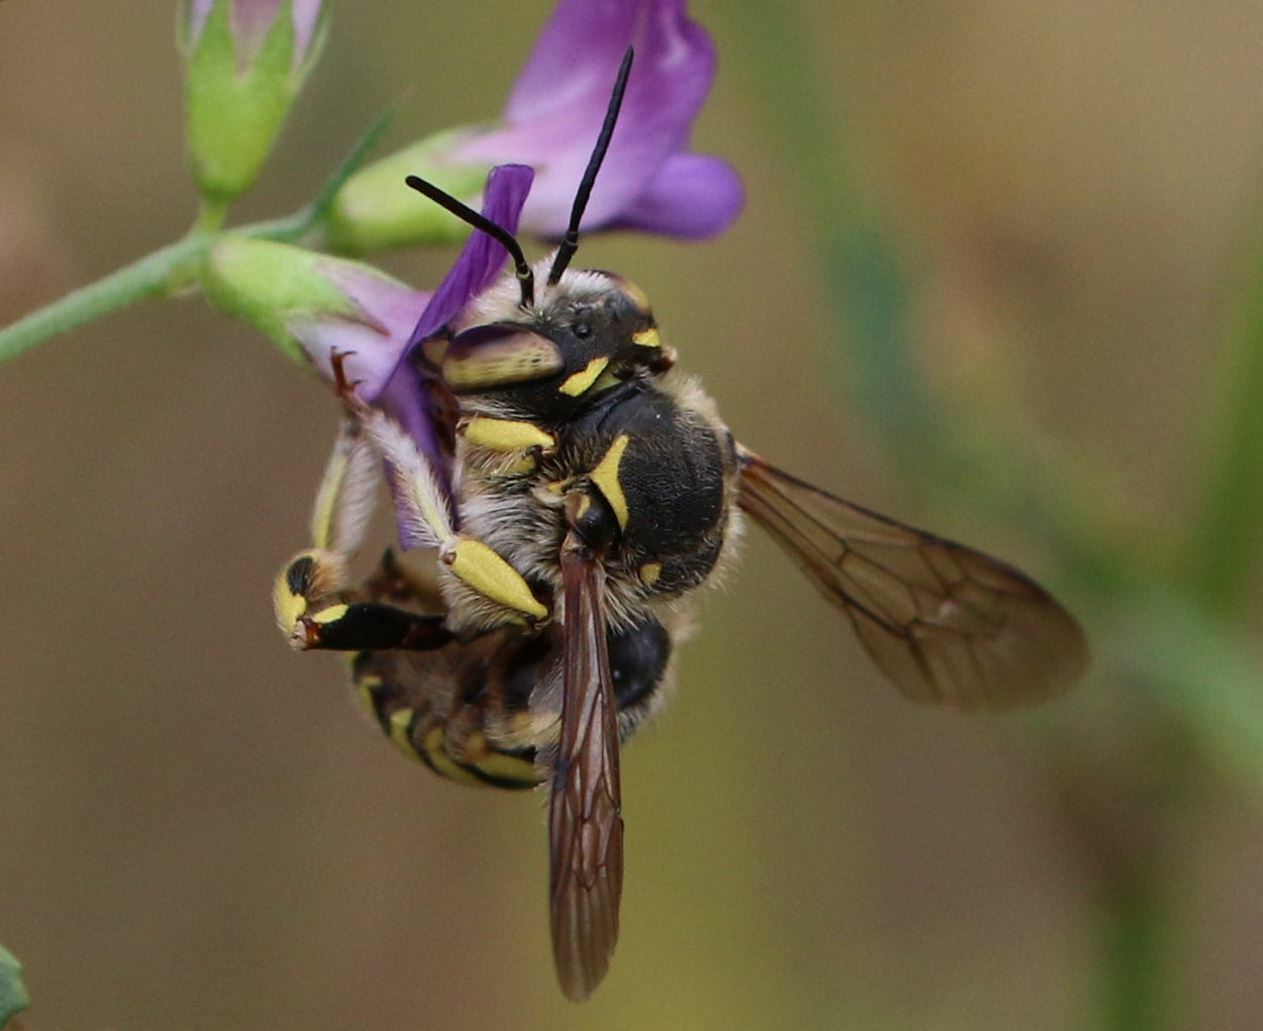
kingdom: Animalia
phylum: Arthropoda
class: Insecta
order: Hymenoptera
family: Megachilidae
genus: Anthidium
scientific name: Anthidium florentinum
